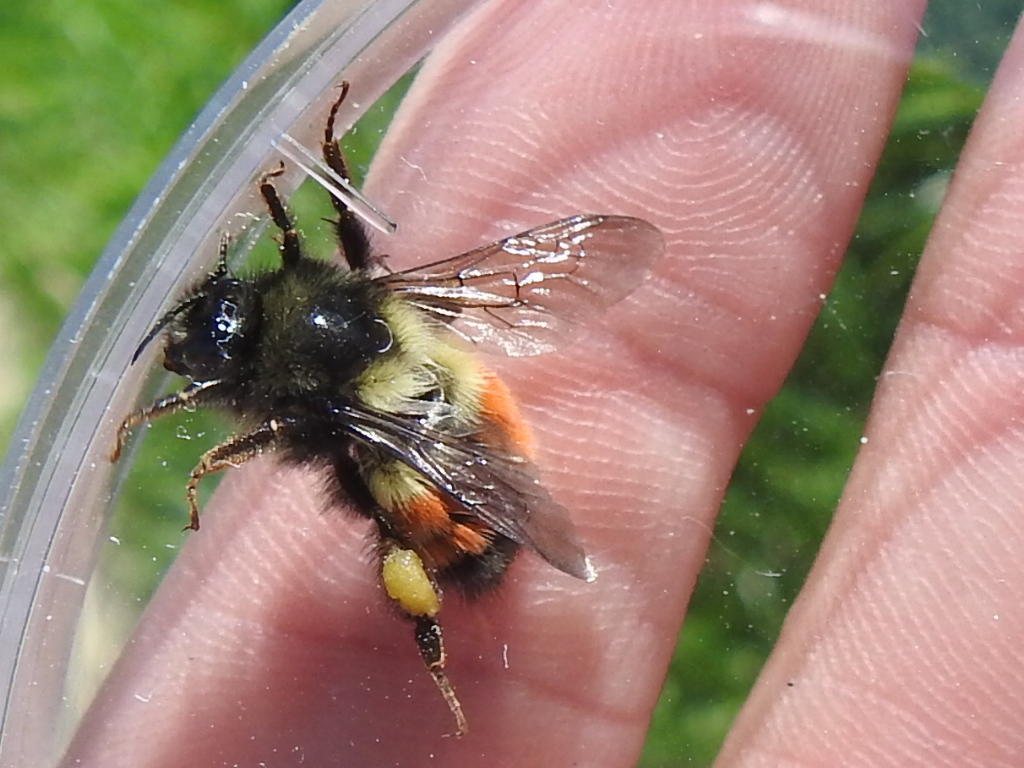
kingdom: Animalia
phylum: Arthropoda
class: Insecta
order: Hymenoptera
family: Apidae
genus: Bombus
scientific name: Bombus melanopygus
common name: Black tail bumble bee
